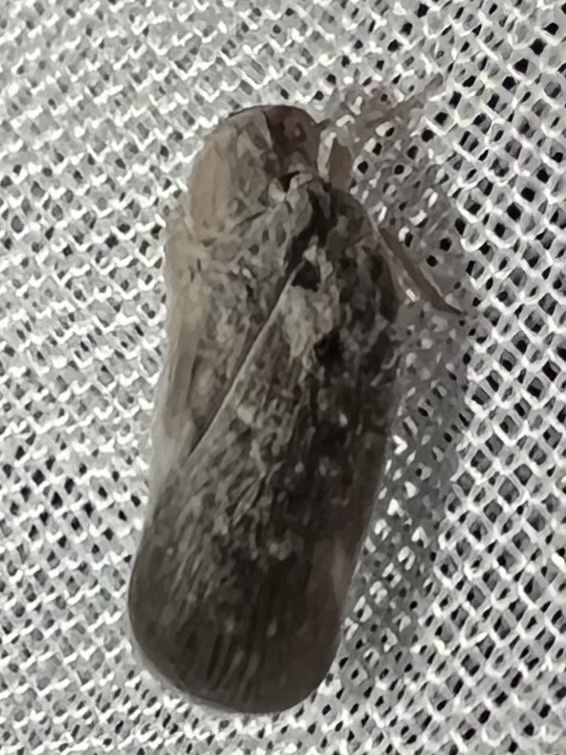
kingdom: Animalia
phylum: Arthropoda
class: Insecta
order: Hemiptera
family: Flatidae
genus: Metcalfa
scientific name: Metcalfa pruinosa
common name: Citrus flatid planthopper
